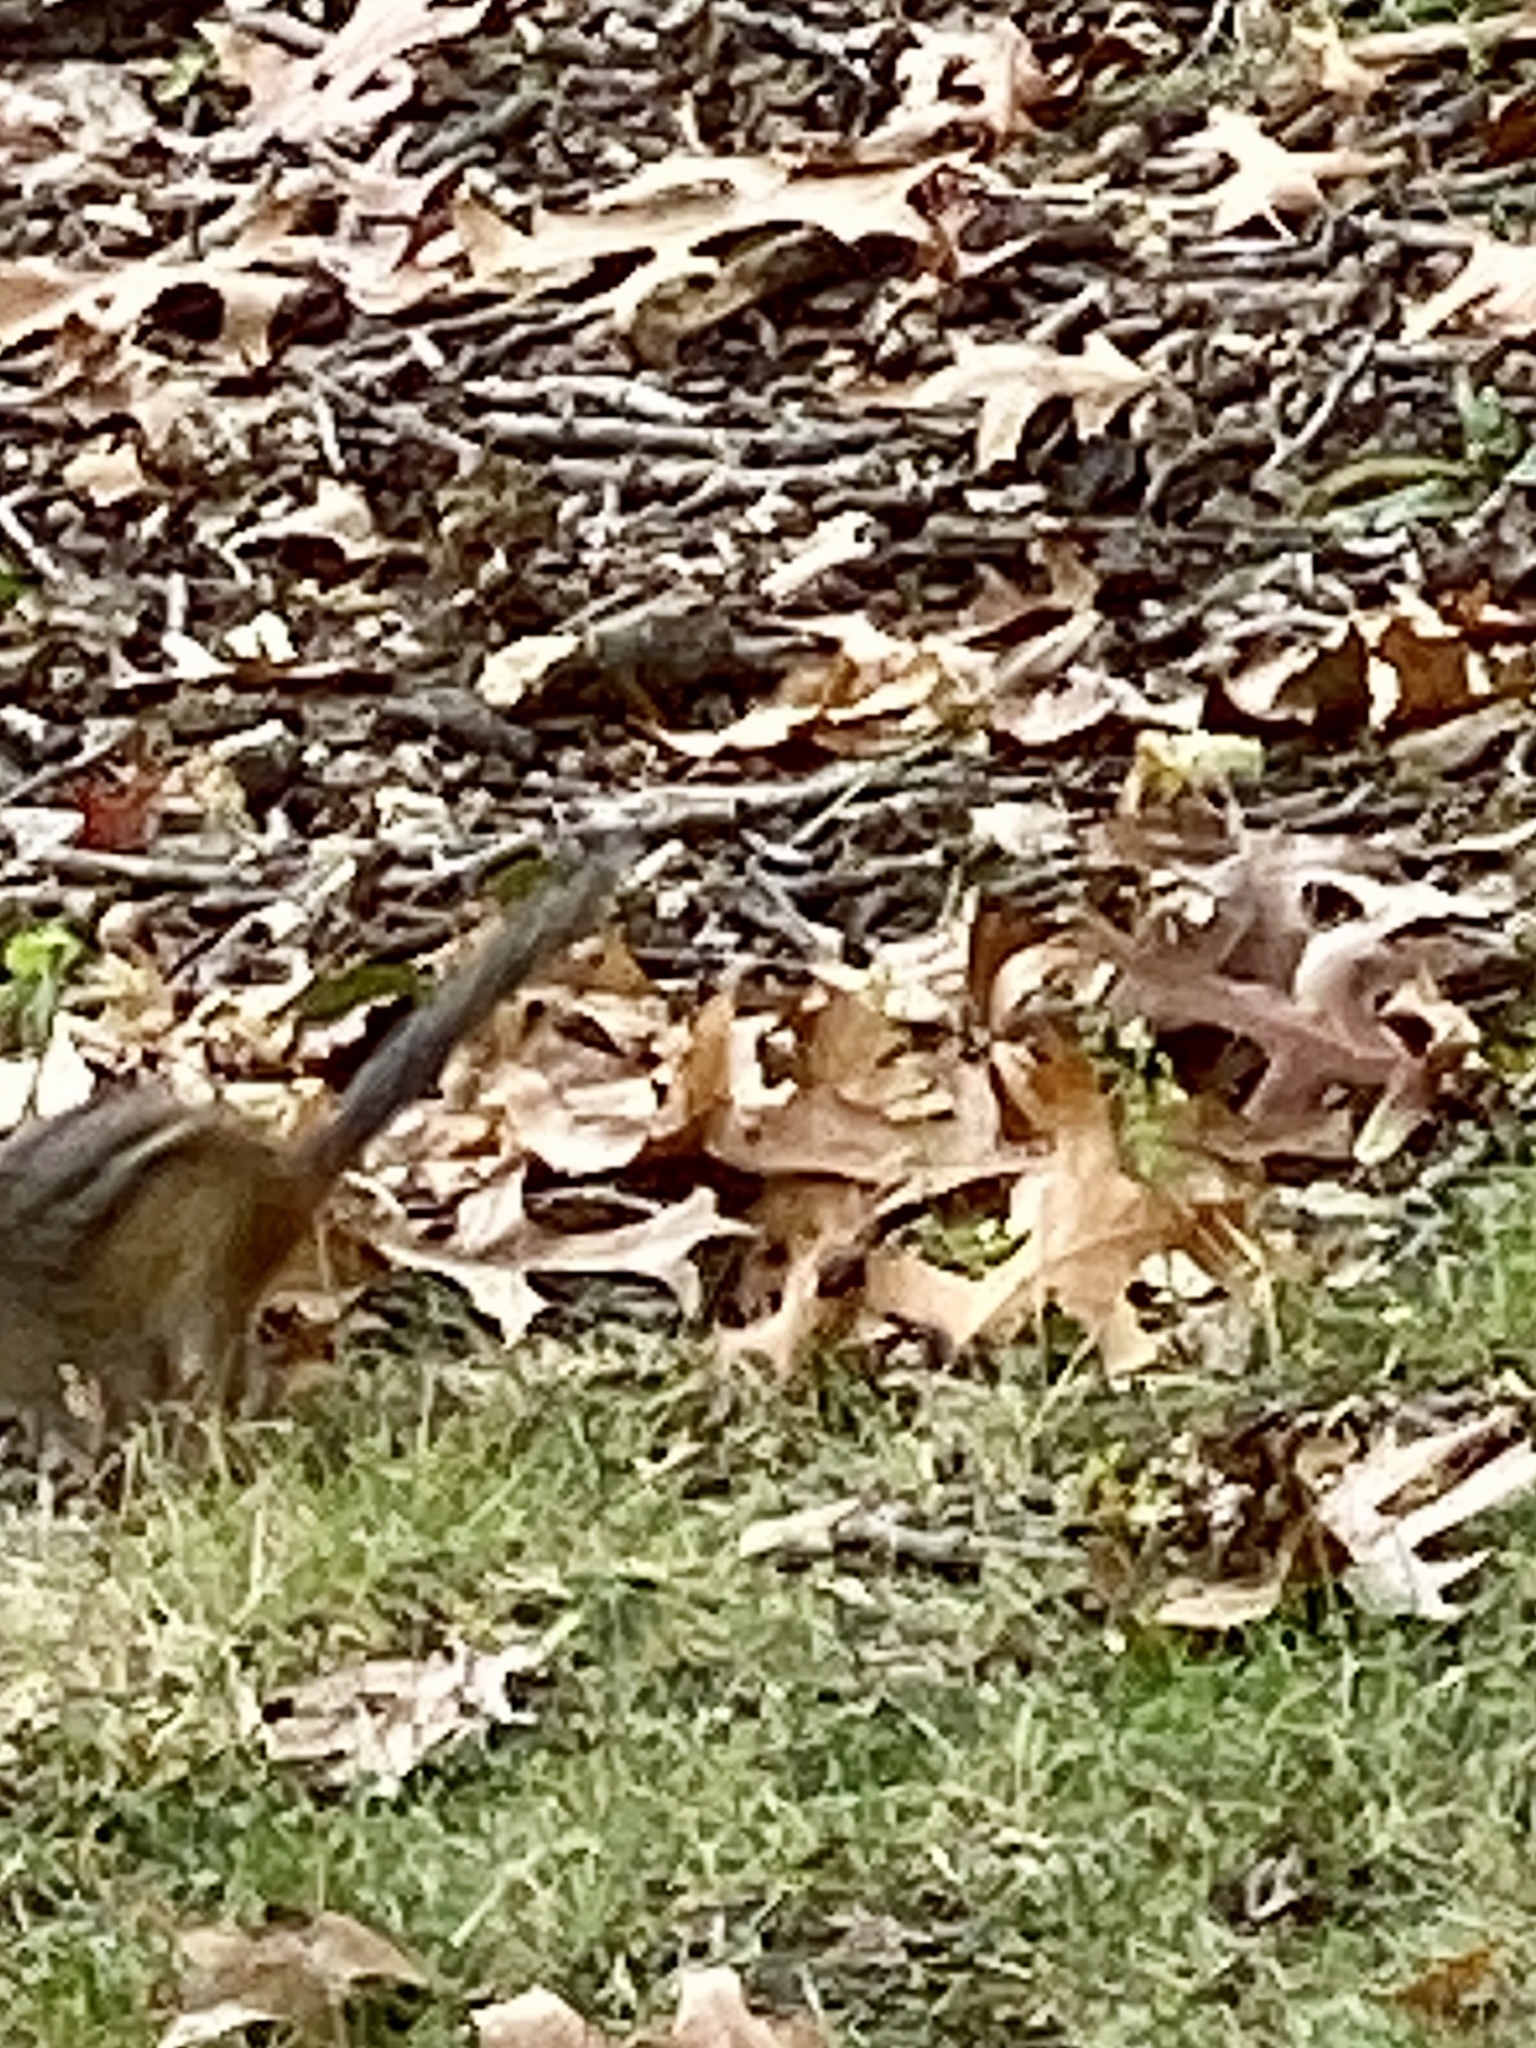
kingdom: Animalia
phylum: Chordata
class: Mammalia
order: Rodentia
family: Sciuridae
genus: Tamias
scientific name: Tamias striatus
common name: Eastern chipmunk
